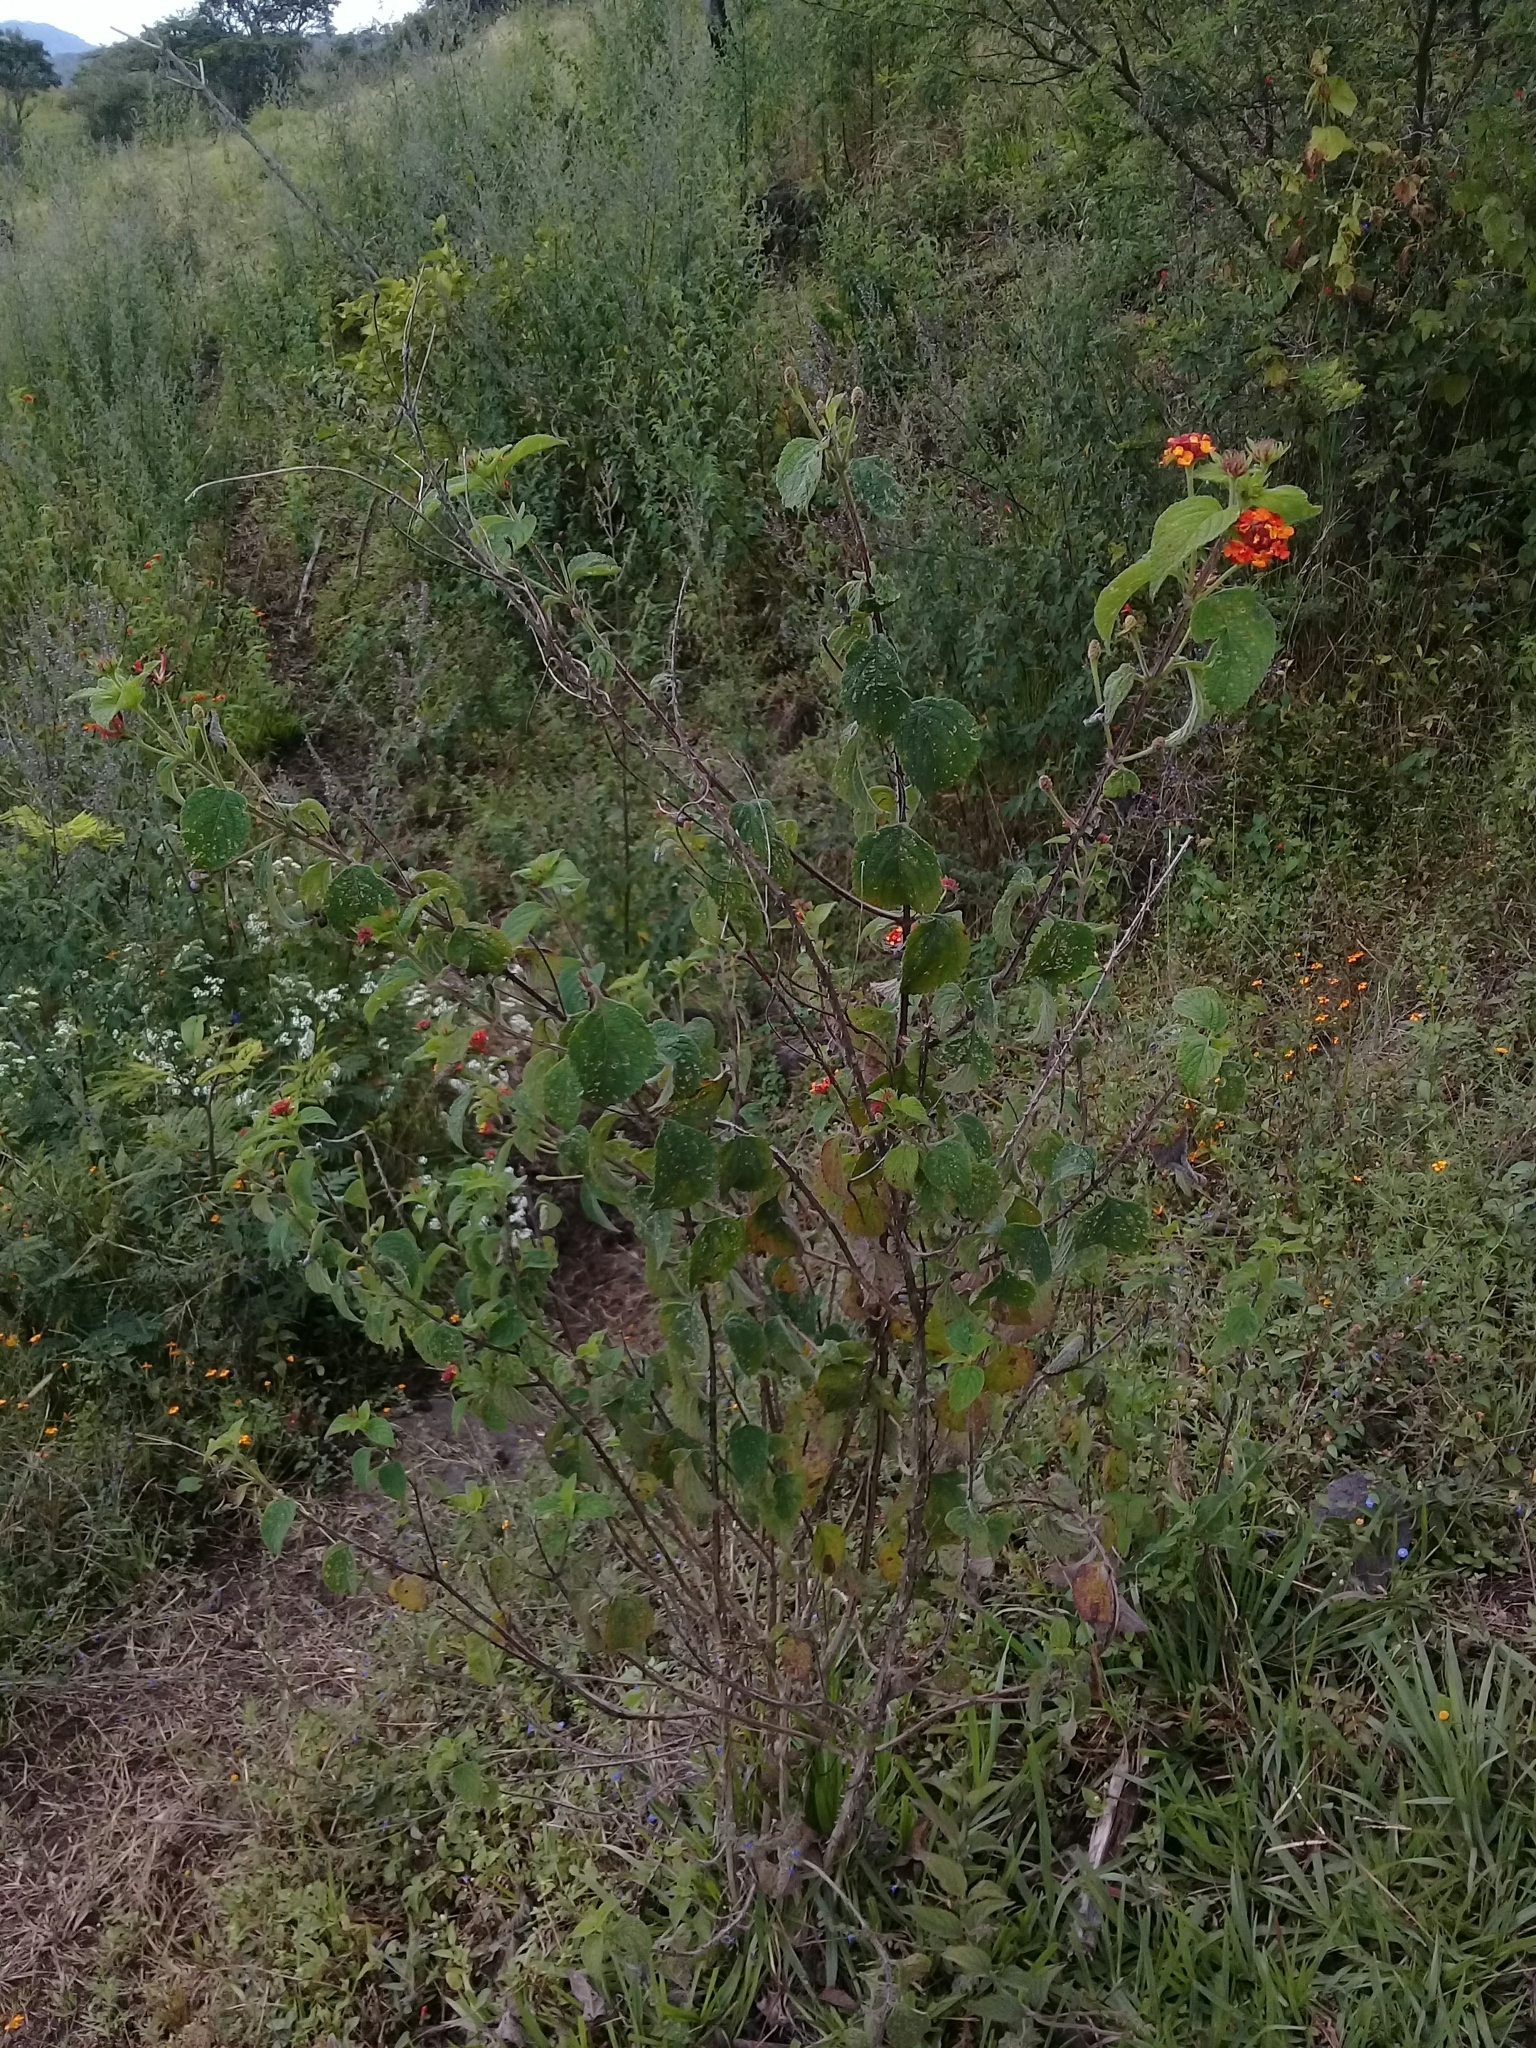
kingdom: Plantae
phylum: Tracheophyta
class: Magnoliopsida
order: Lamiales
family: Verbenaceae
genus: Lantana
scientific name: Lantana camara
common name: Lantana
